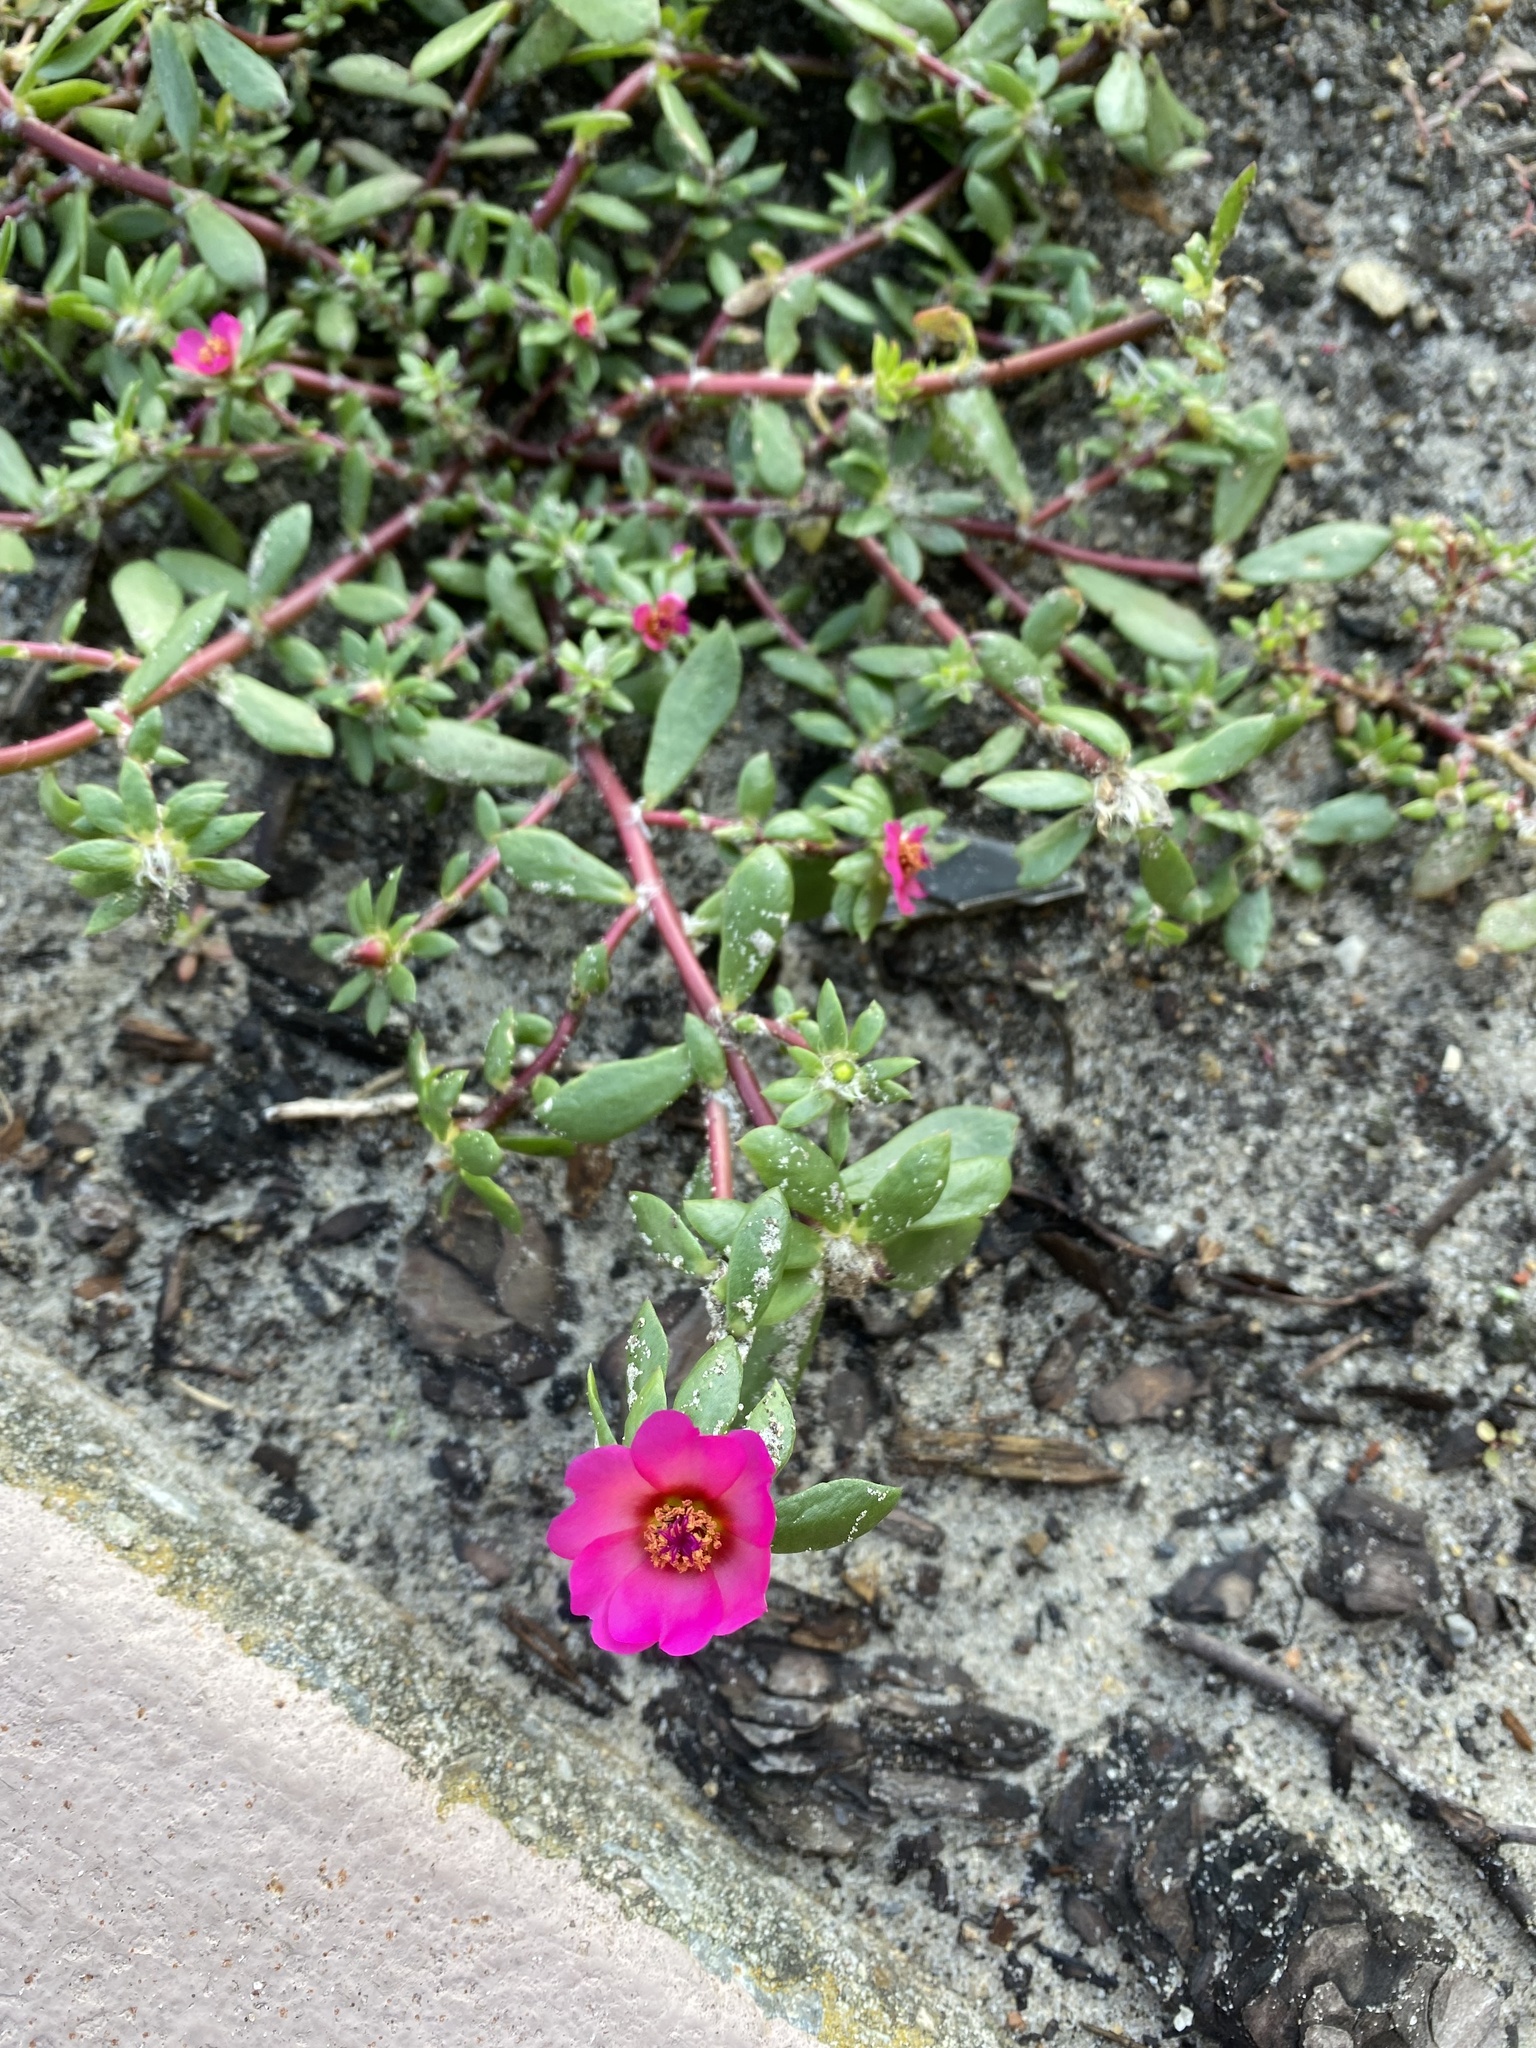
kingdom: Plantae
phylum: Tracheophyta
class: Magnoliopsida
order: Caryophyllales
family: Portulacaceae
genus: Portulaca
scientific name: Portulaca amilis
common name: Paraguayan purslane
